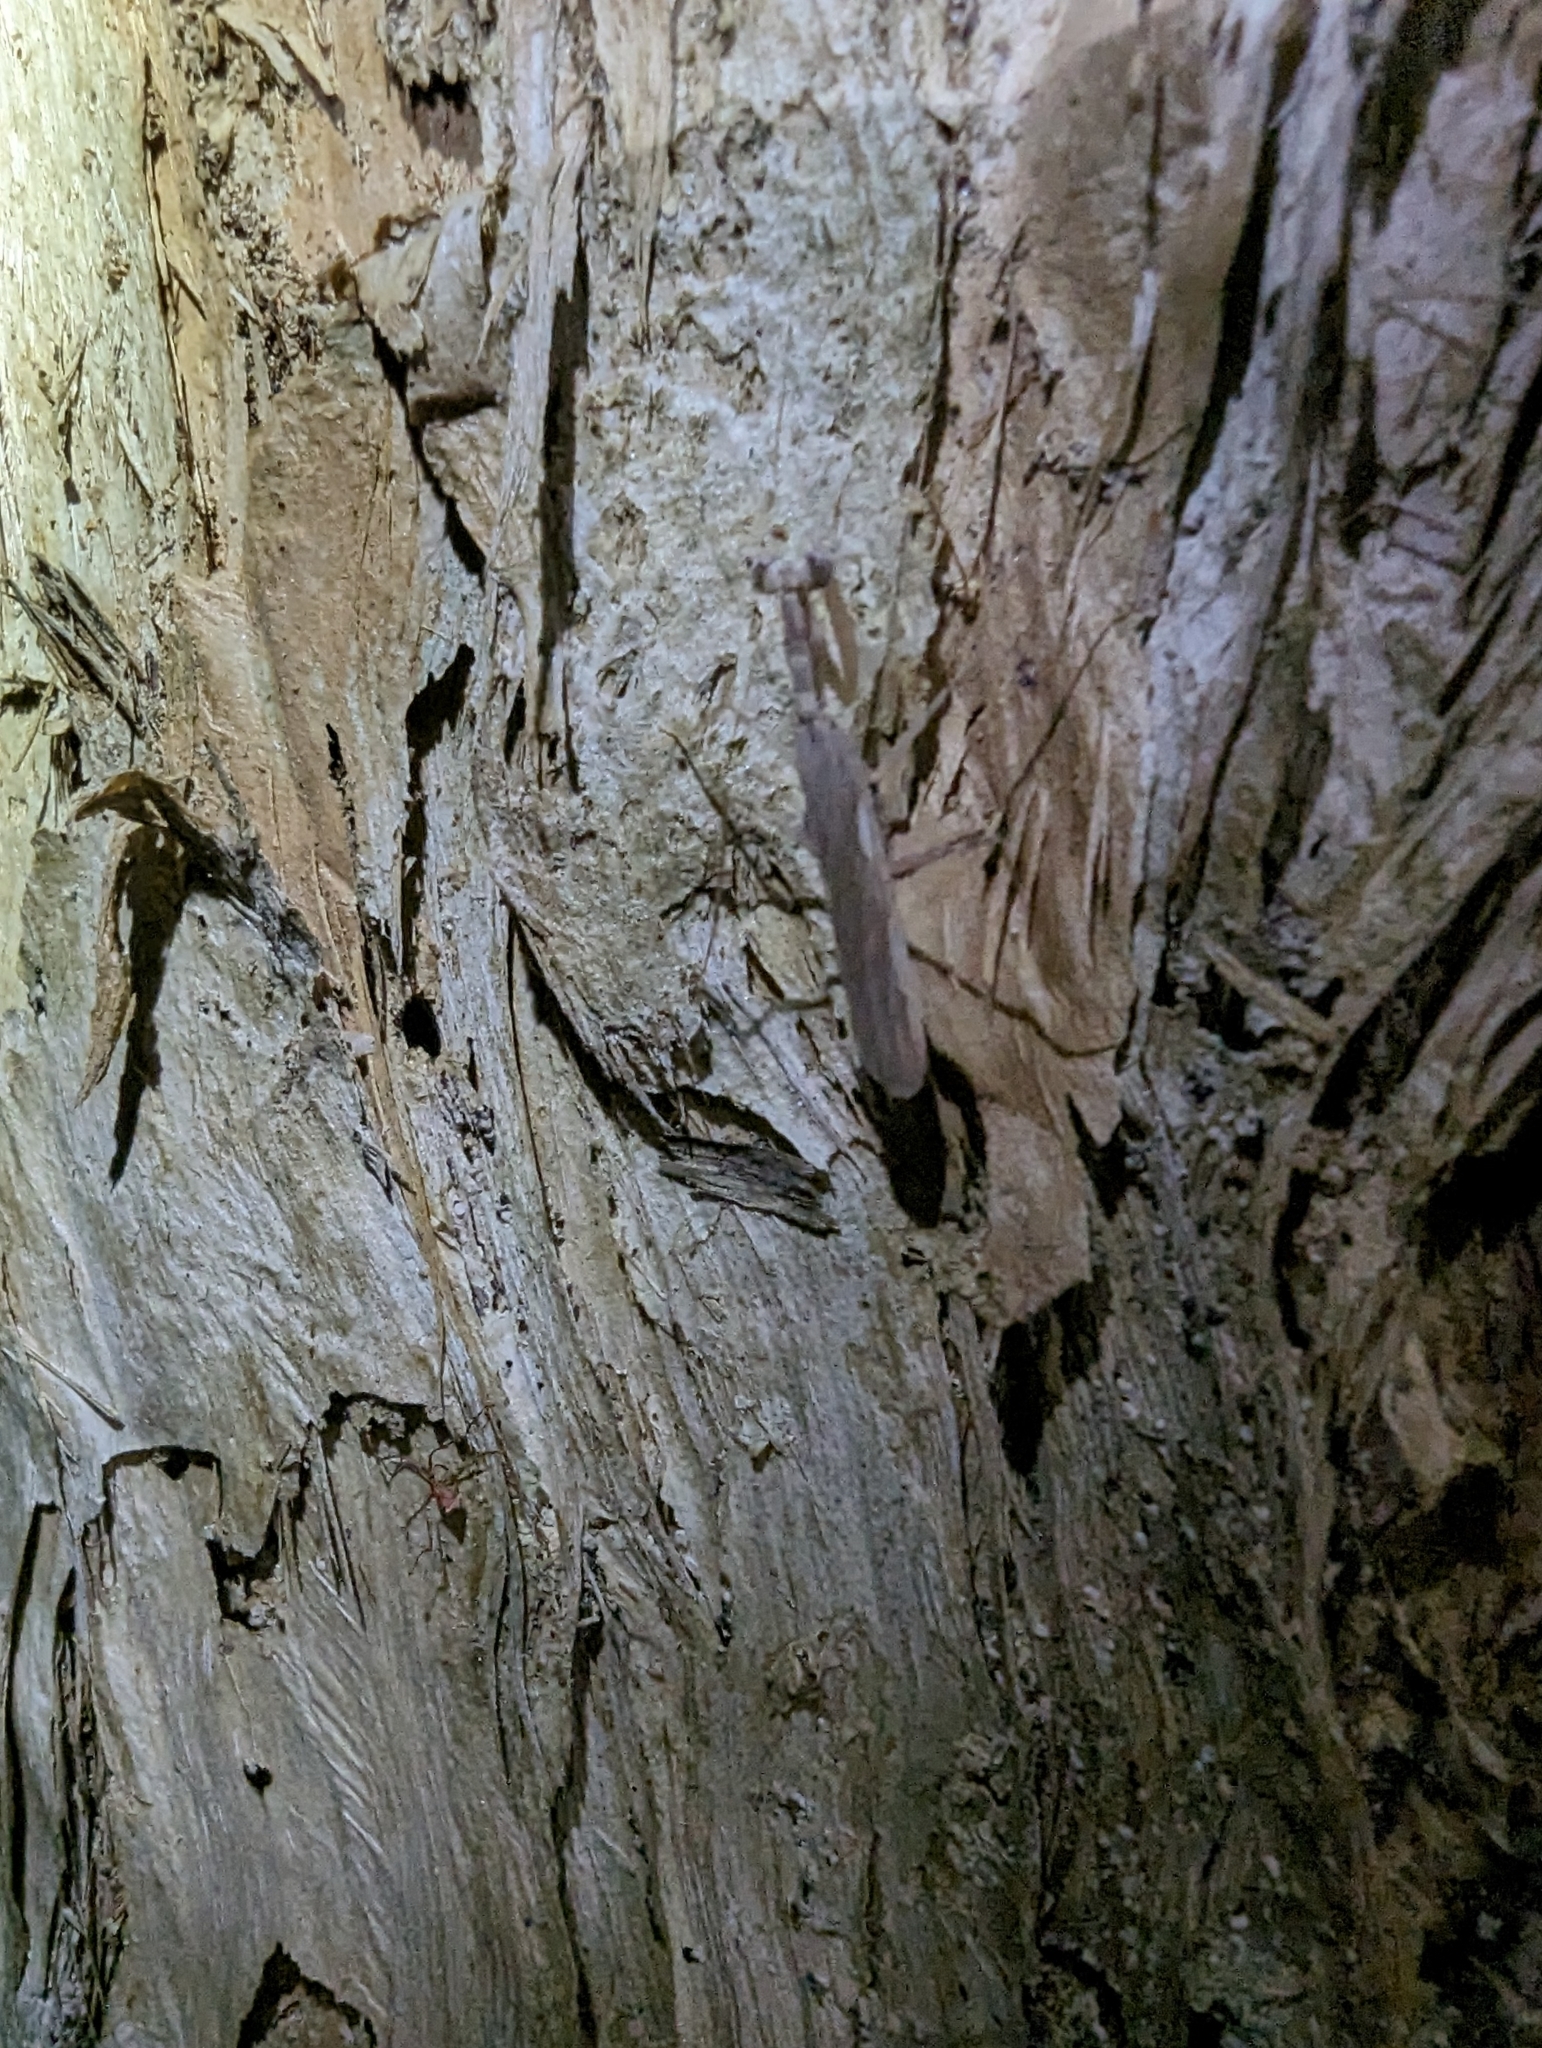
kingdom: Animalia
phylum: Arthropoda
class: Insecta
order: Mantodea
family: Nanomantidae
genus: Ima
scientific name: Ima fusca
